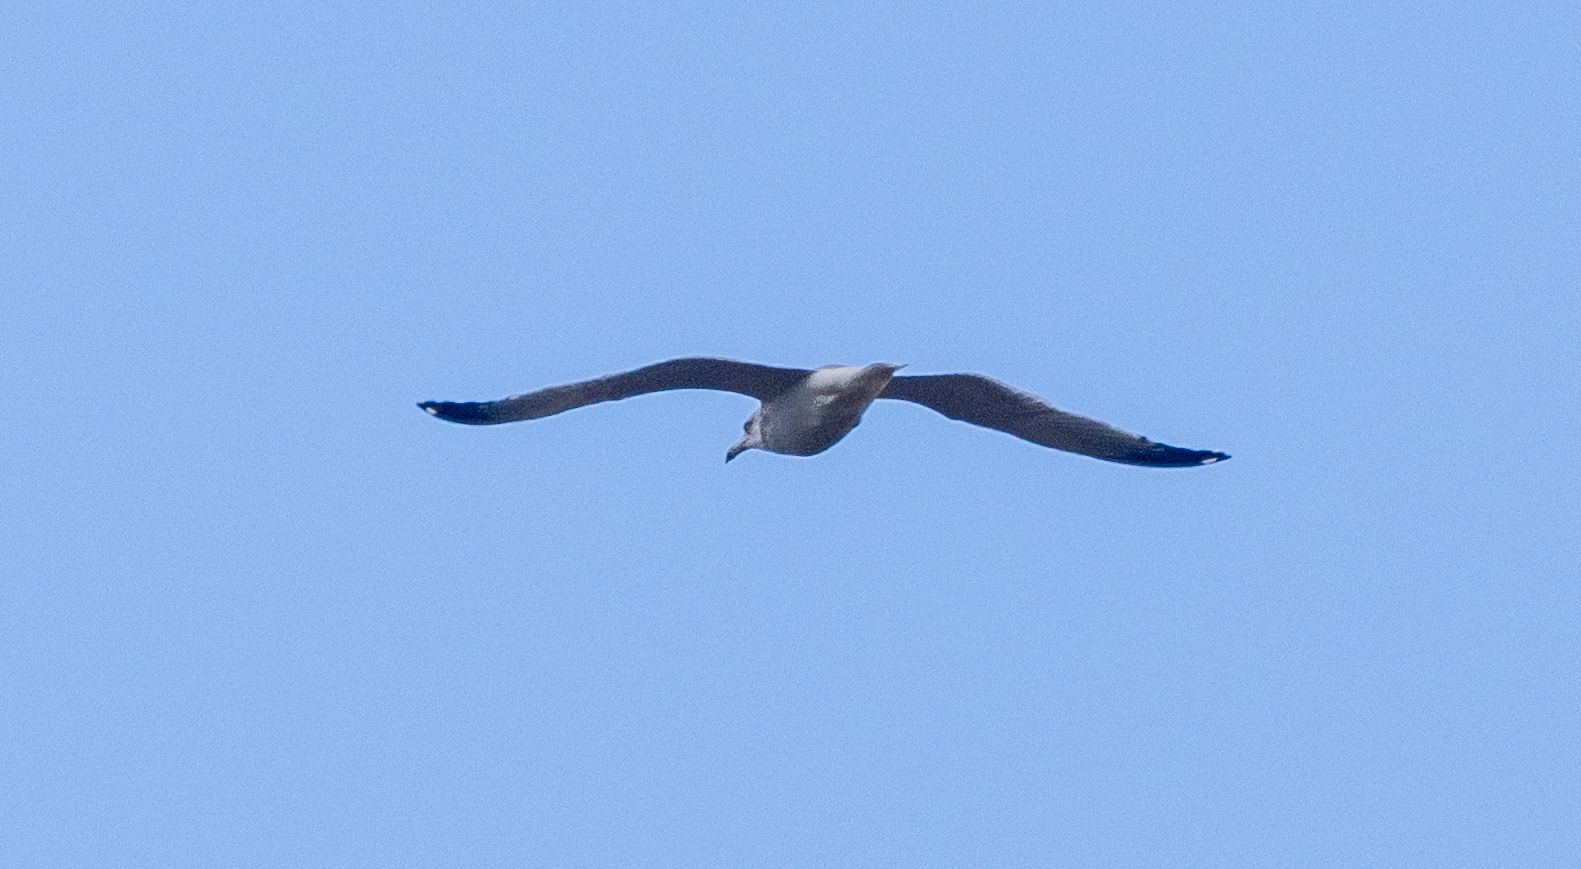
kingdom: Animalia
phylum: Chordata
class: Aves
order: Charadriiformes
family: Laridae
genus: Larus
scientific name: Larus argentatus
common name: Herring gull
